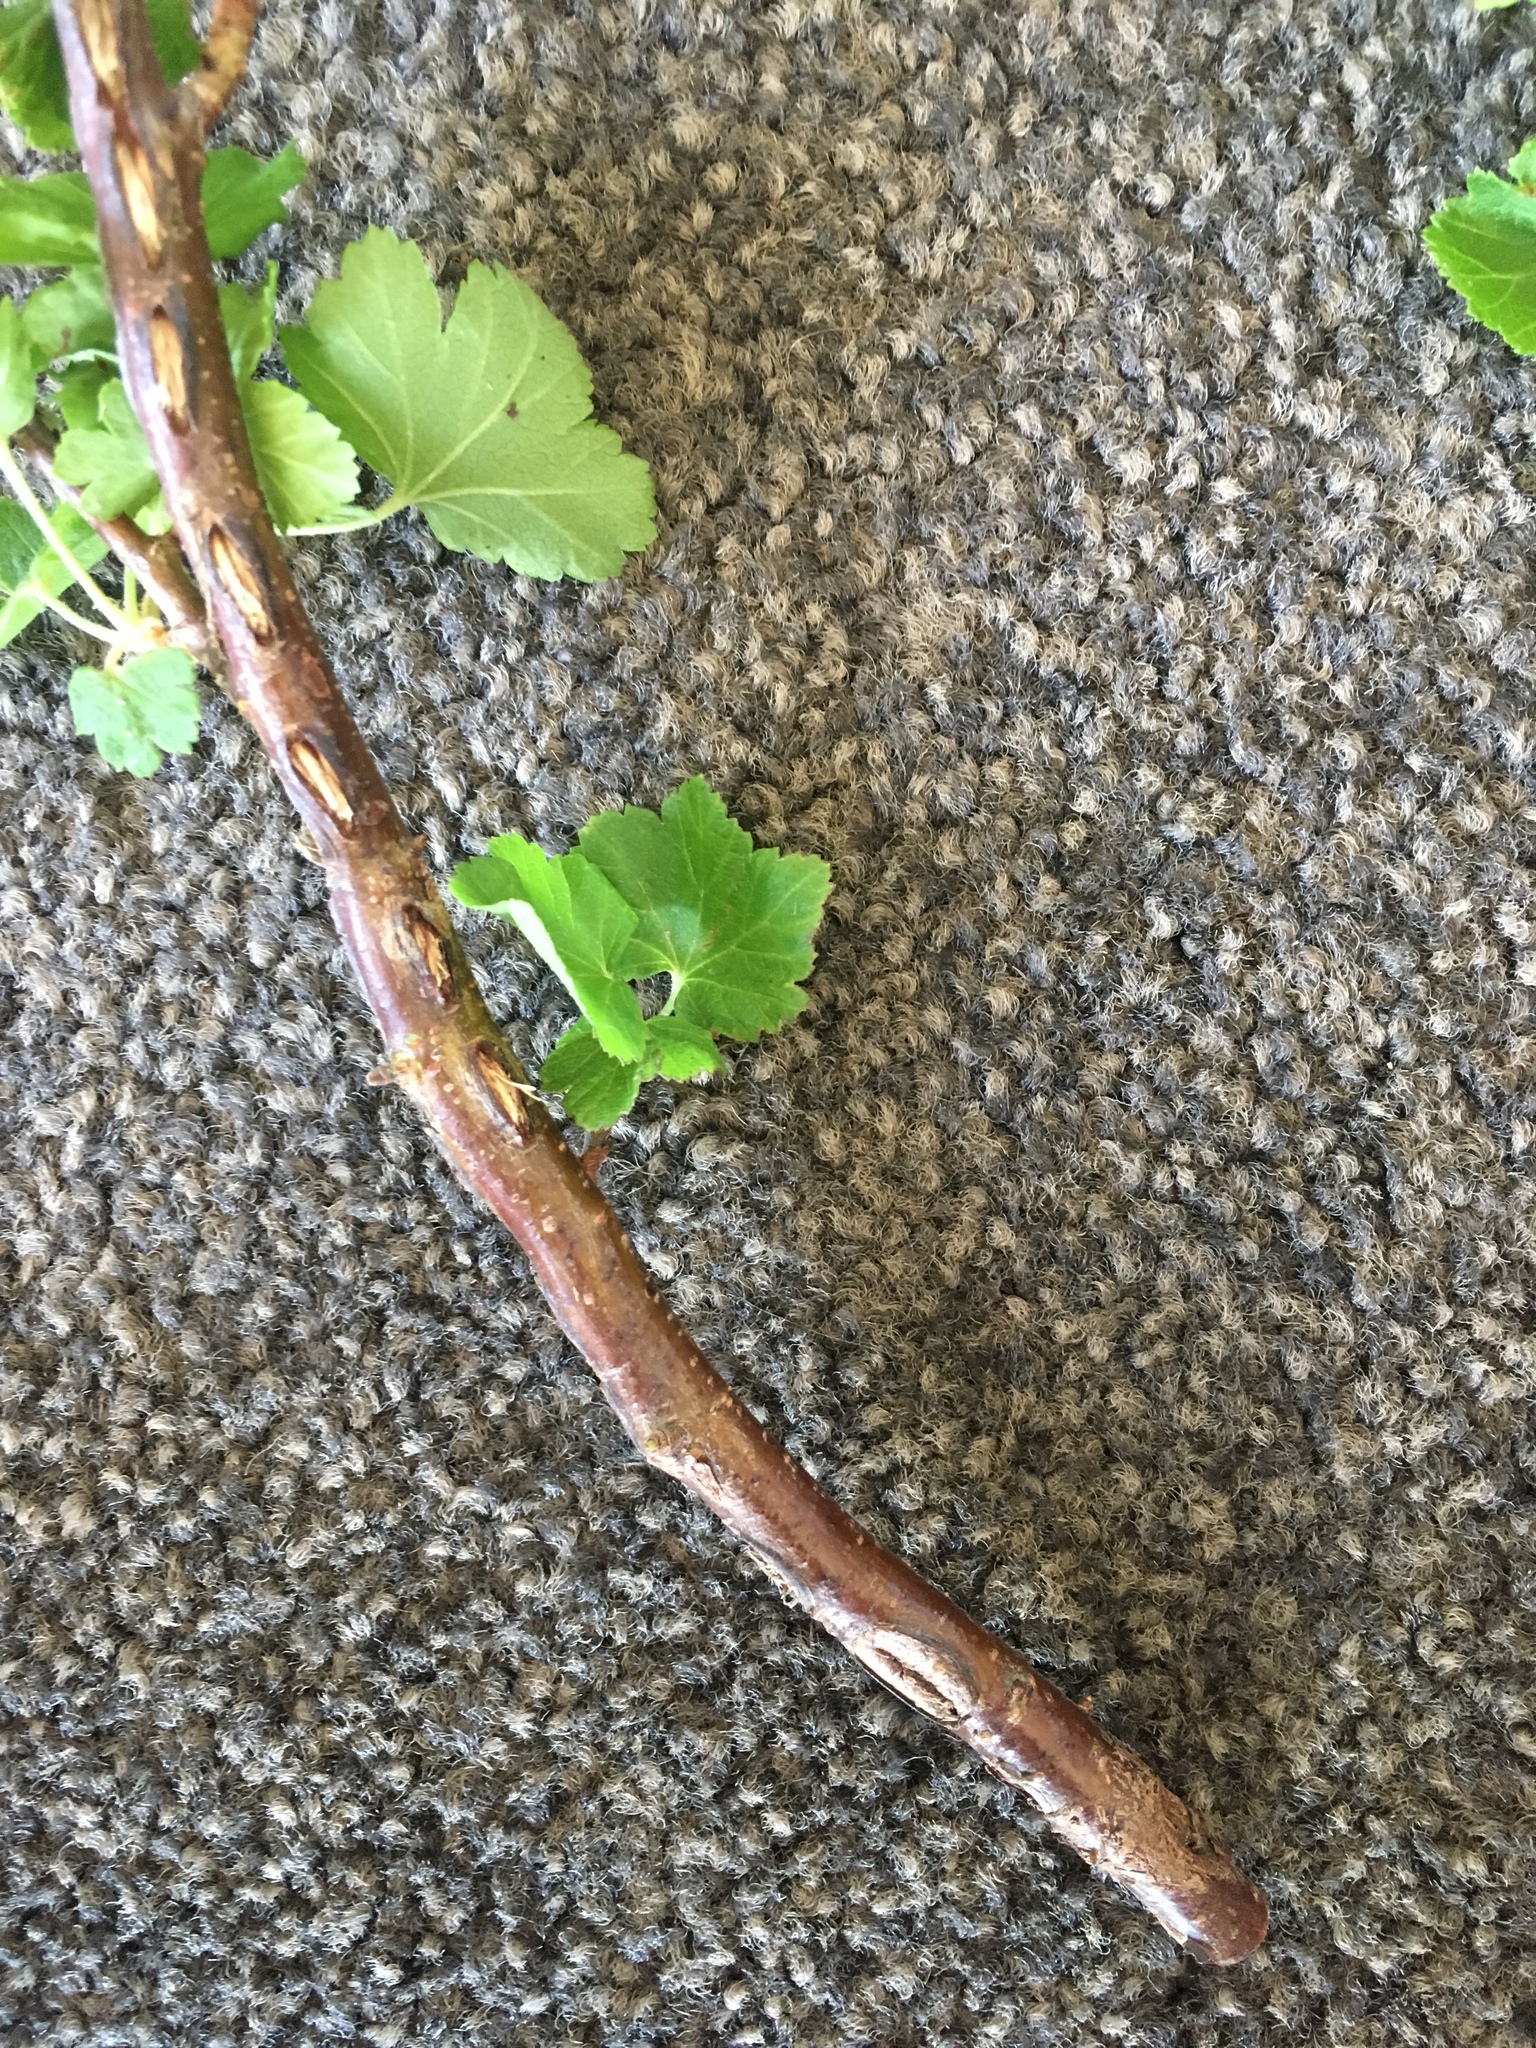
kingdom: Plantae
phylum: Tracheophyta
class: Magnoliopsida
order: Saxifragales
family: Grossulariaceae
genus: Ribes
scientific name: Ribes sanguineum
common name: Flowering currant
